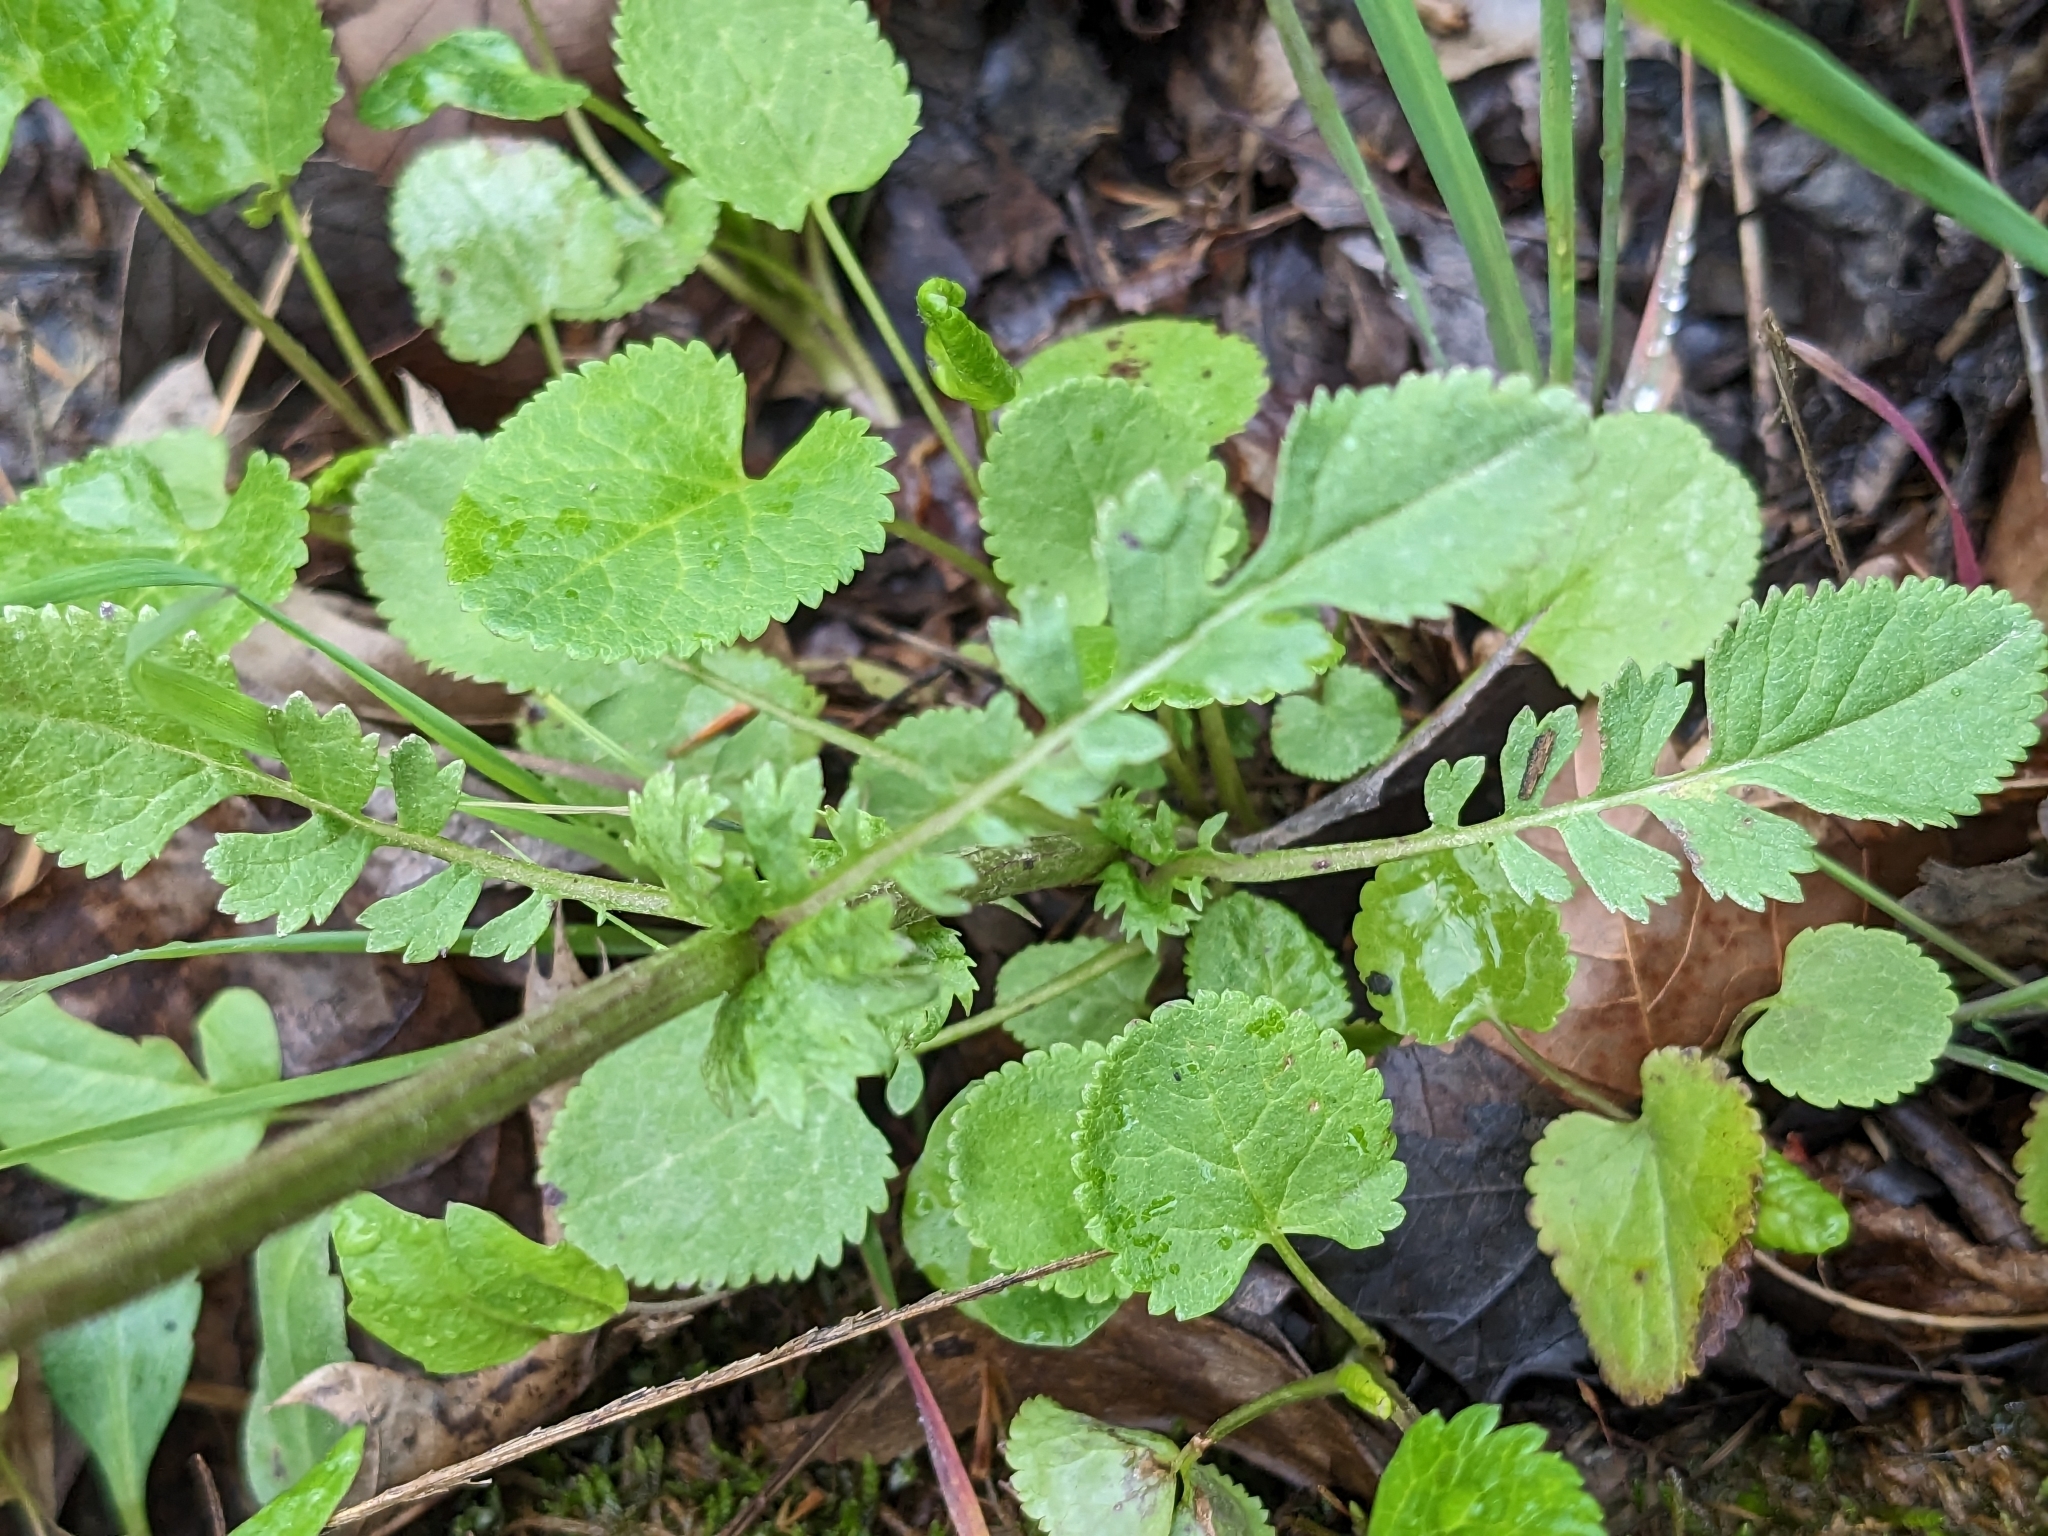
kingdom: Plantae
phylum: Tracheophyta
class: Magnoliopsida
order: Asterales
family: Asteraceae
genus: Packera
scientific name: Packera aurea
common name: Golden groundsel
